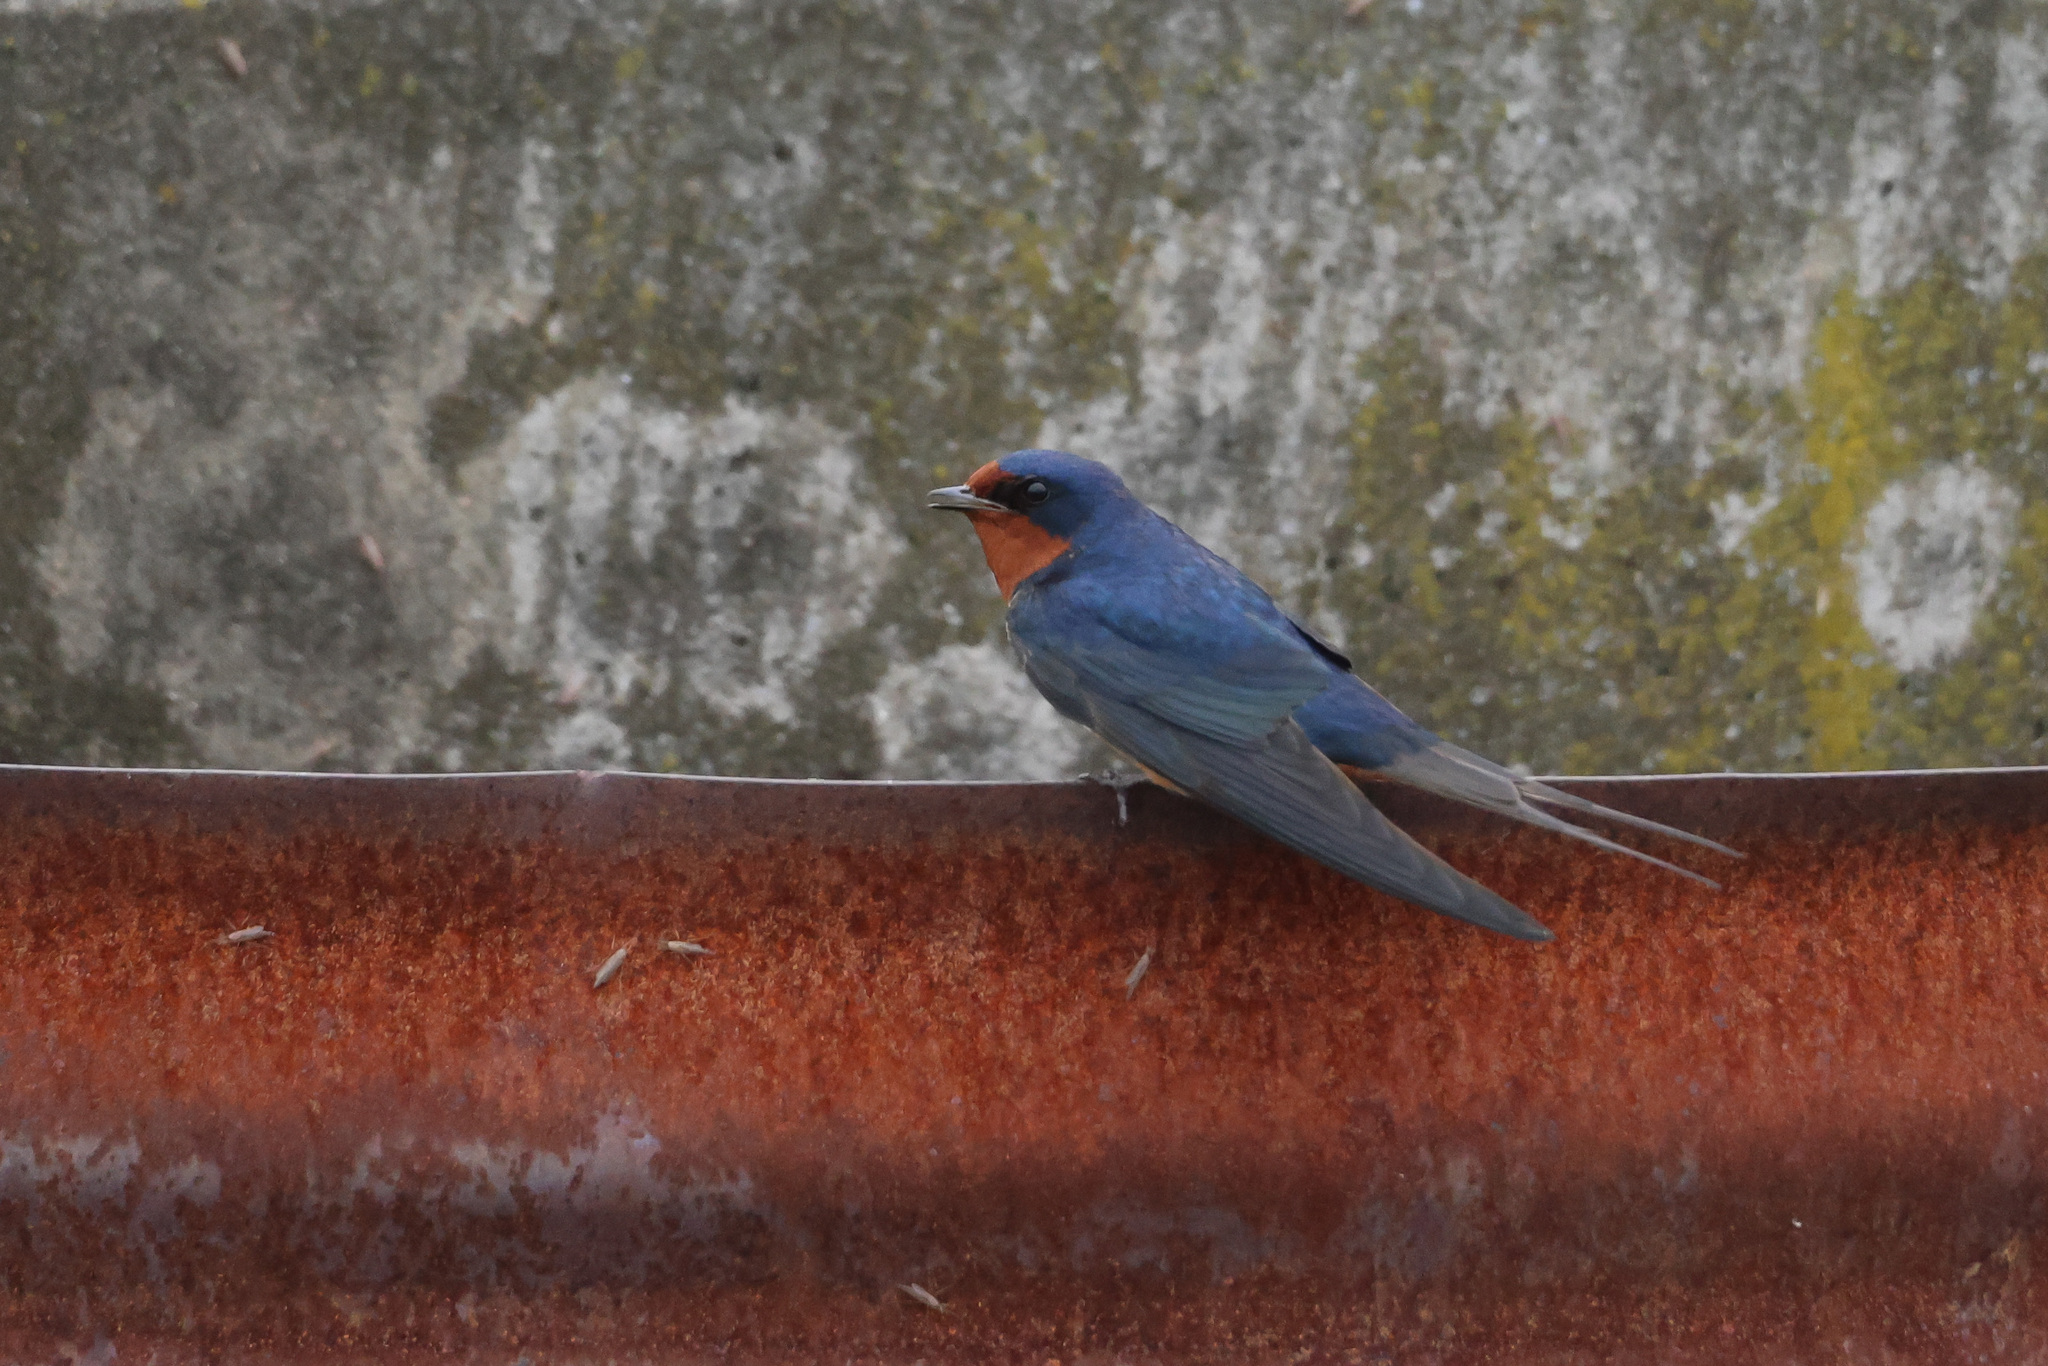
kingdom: Animalia
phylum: Chordata
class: Aves
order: Passeriformes
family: Hirundinidae
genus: Hirundo
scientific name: Hirundo rustica
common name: Barn swallow
